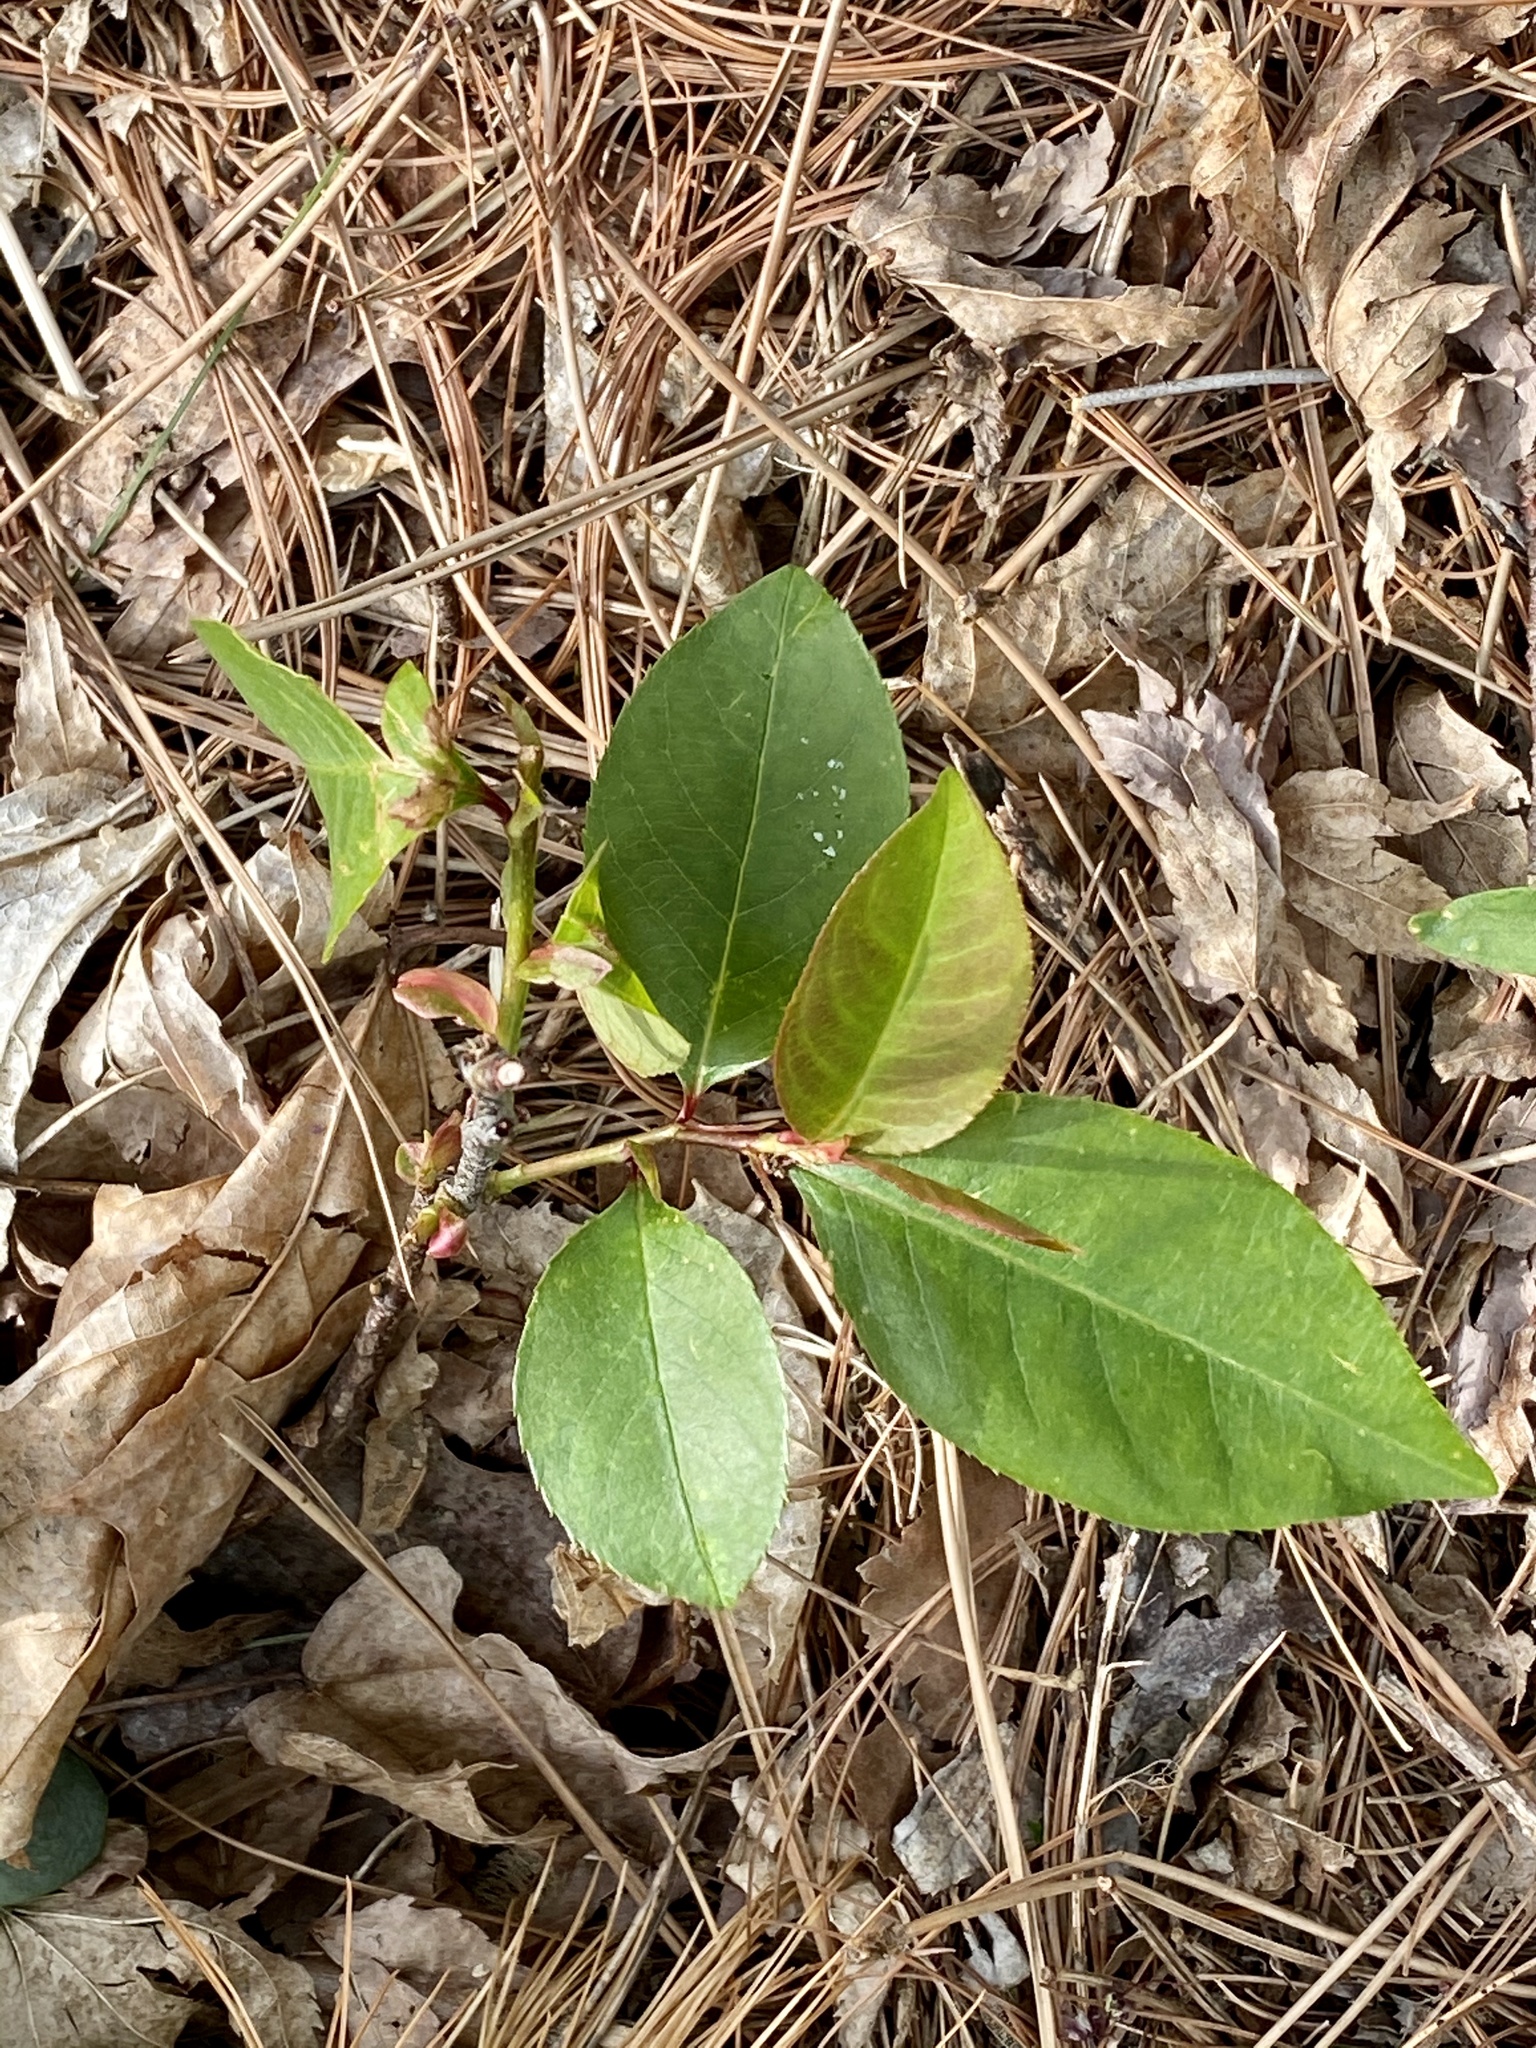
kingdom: Plantae
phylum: Tracheophyta
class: Magnoliopsida
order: Rosales
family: Rosaceae
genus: Prunus
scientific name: Prunus serotina
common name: Black cherry
